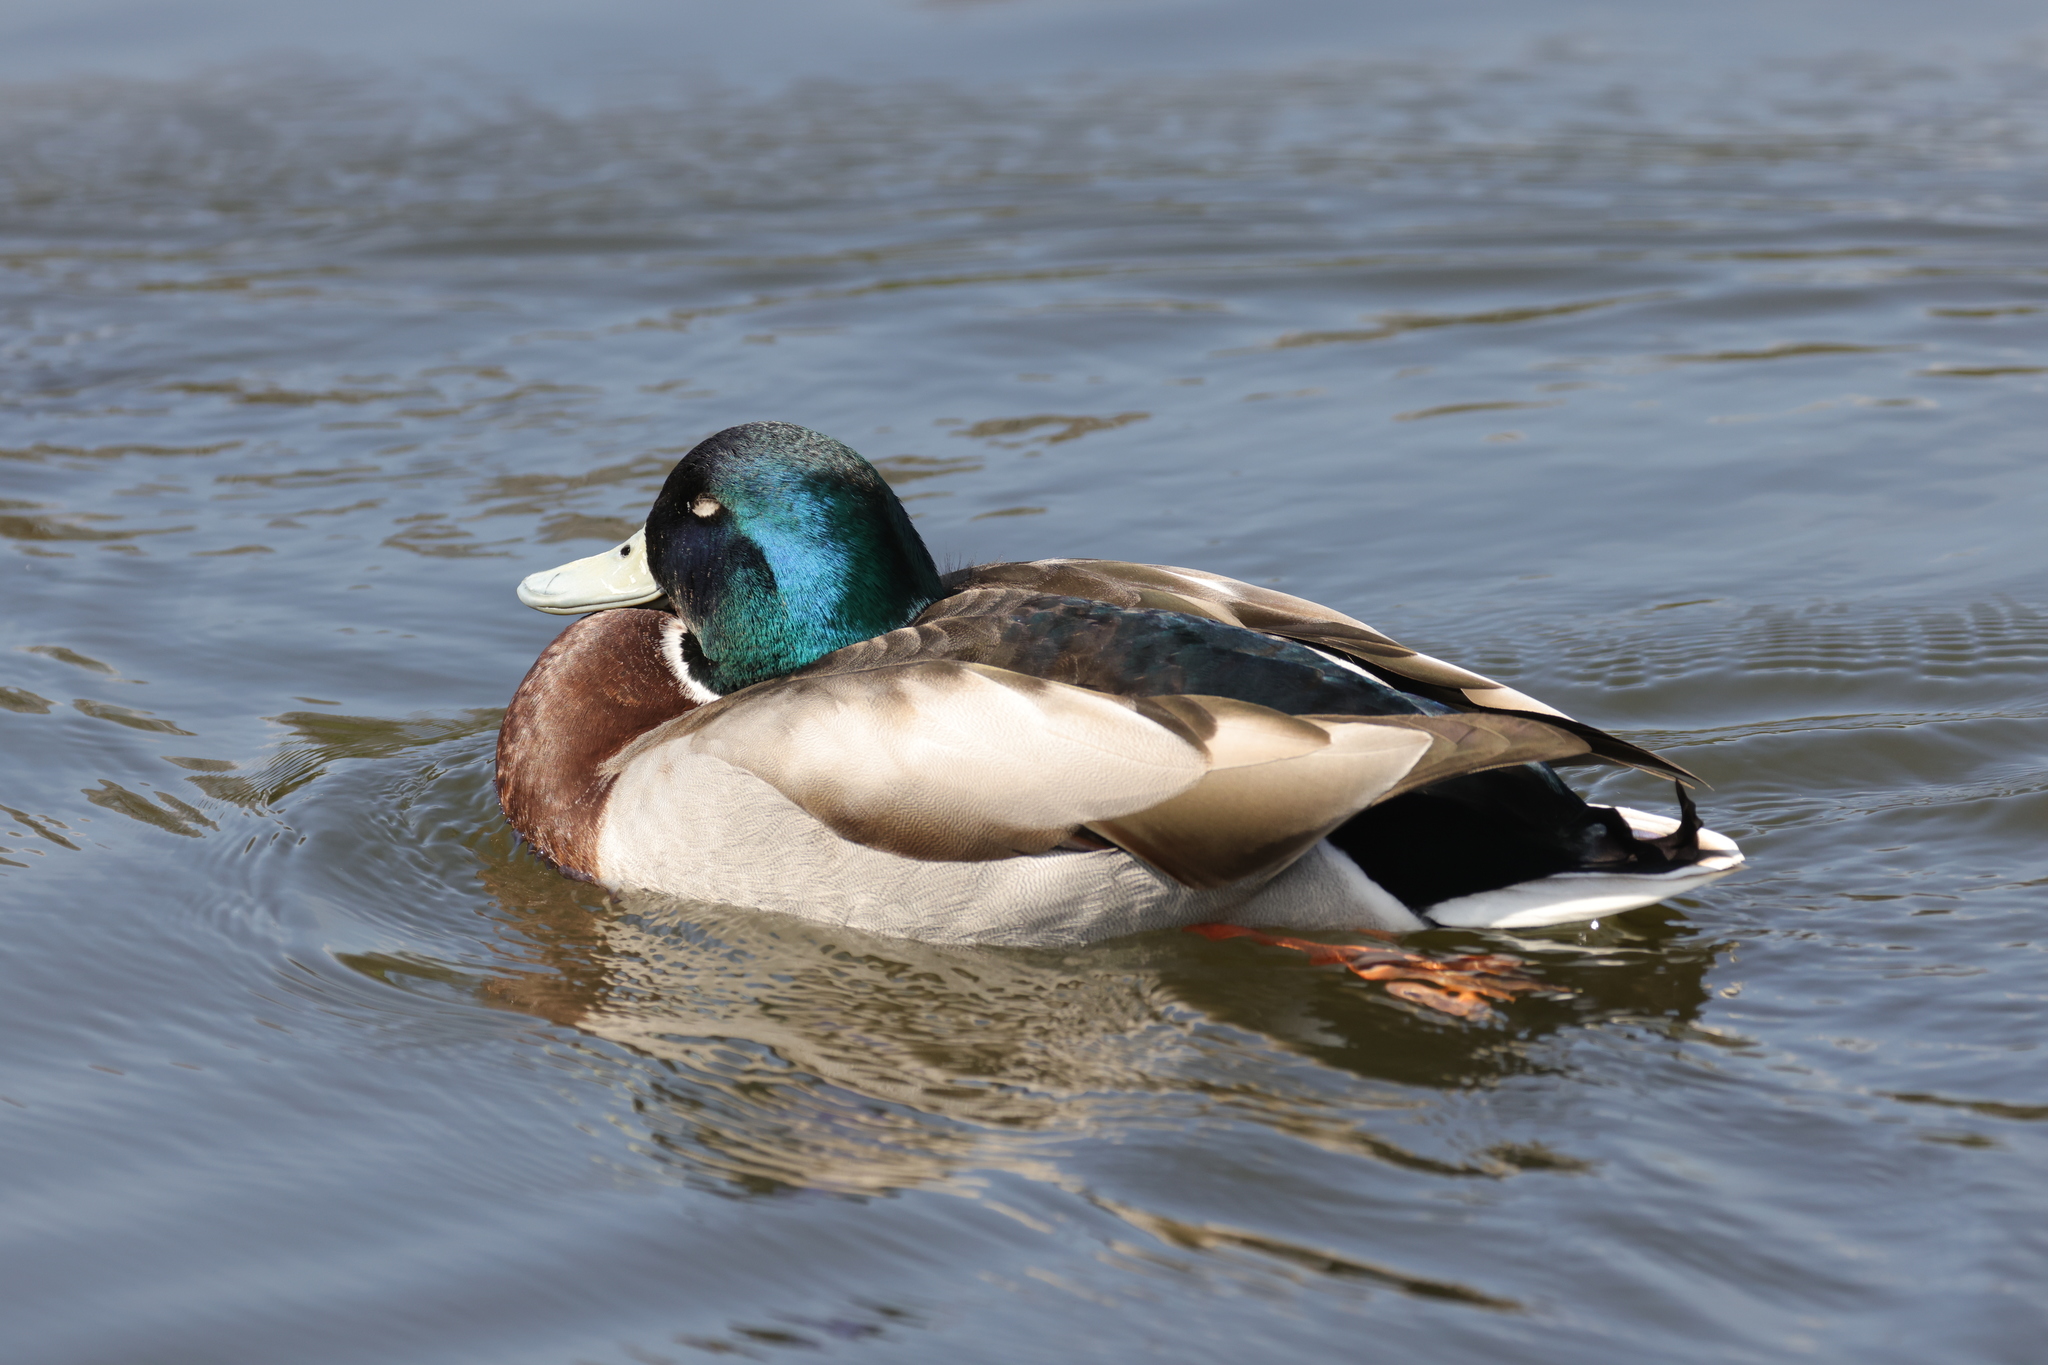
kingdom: Animalia
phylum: Chordata
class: Aves
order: Anseriformes
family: Anatidae
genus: Anas
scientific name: Anas platyrhynchos
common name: Mallard
